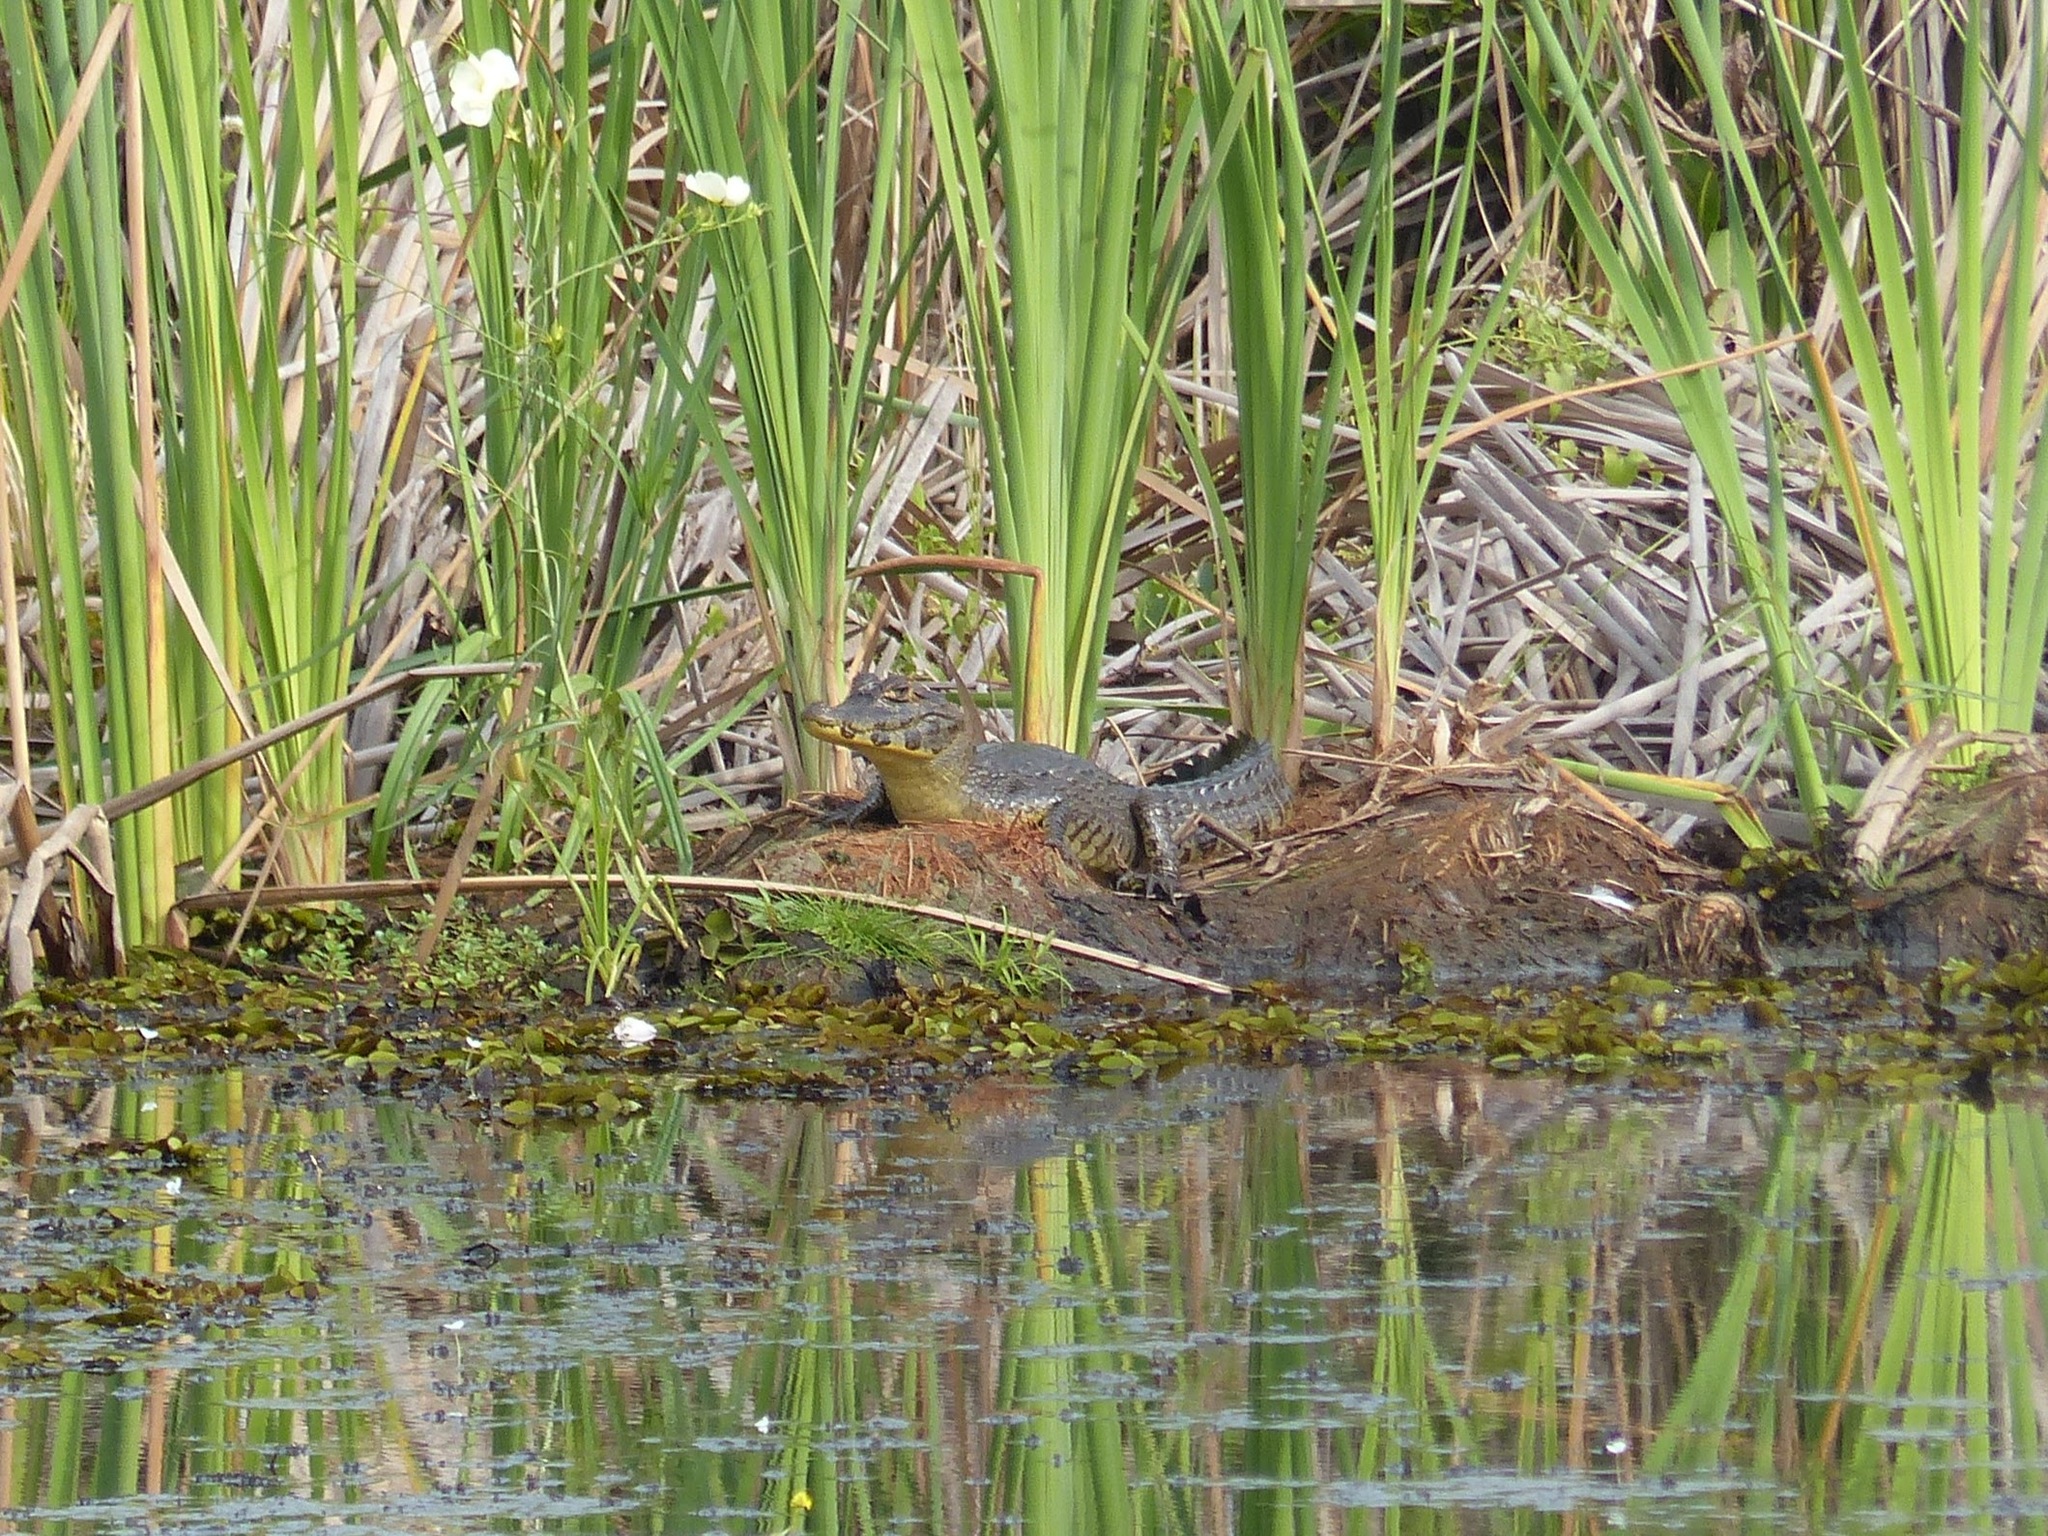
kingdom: Animalia
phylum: Chordata
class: Crocodylia
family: Alligatoridae
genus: Caiman
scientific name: Caiman yacare
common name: Yacare caiman
